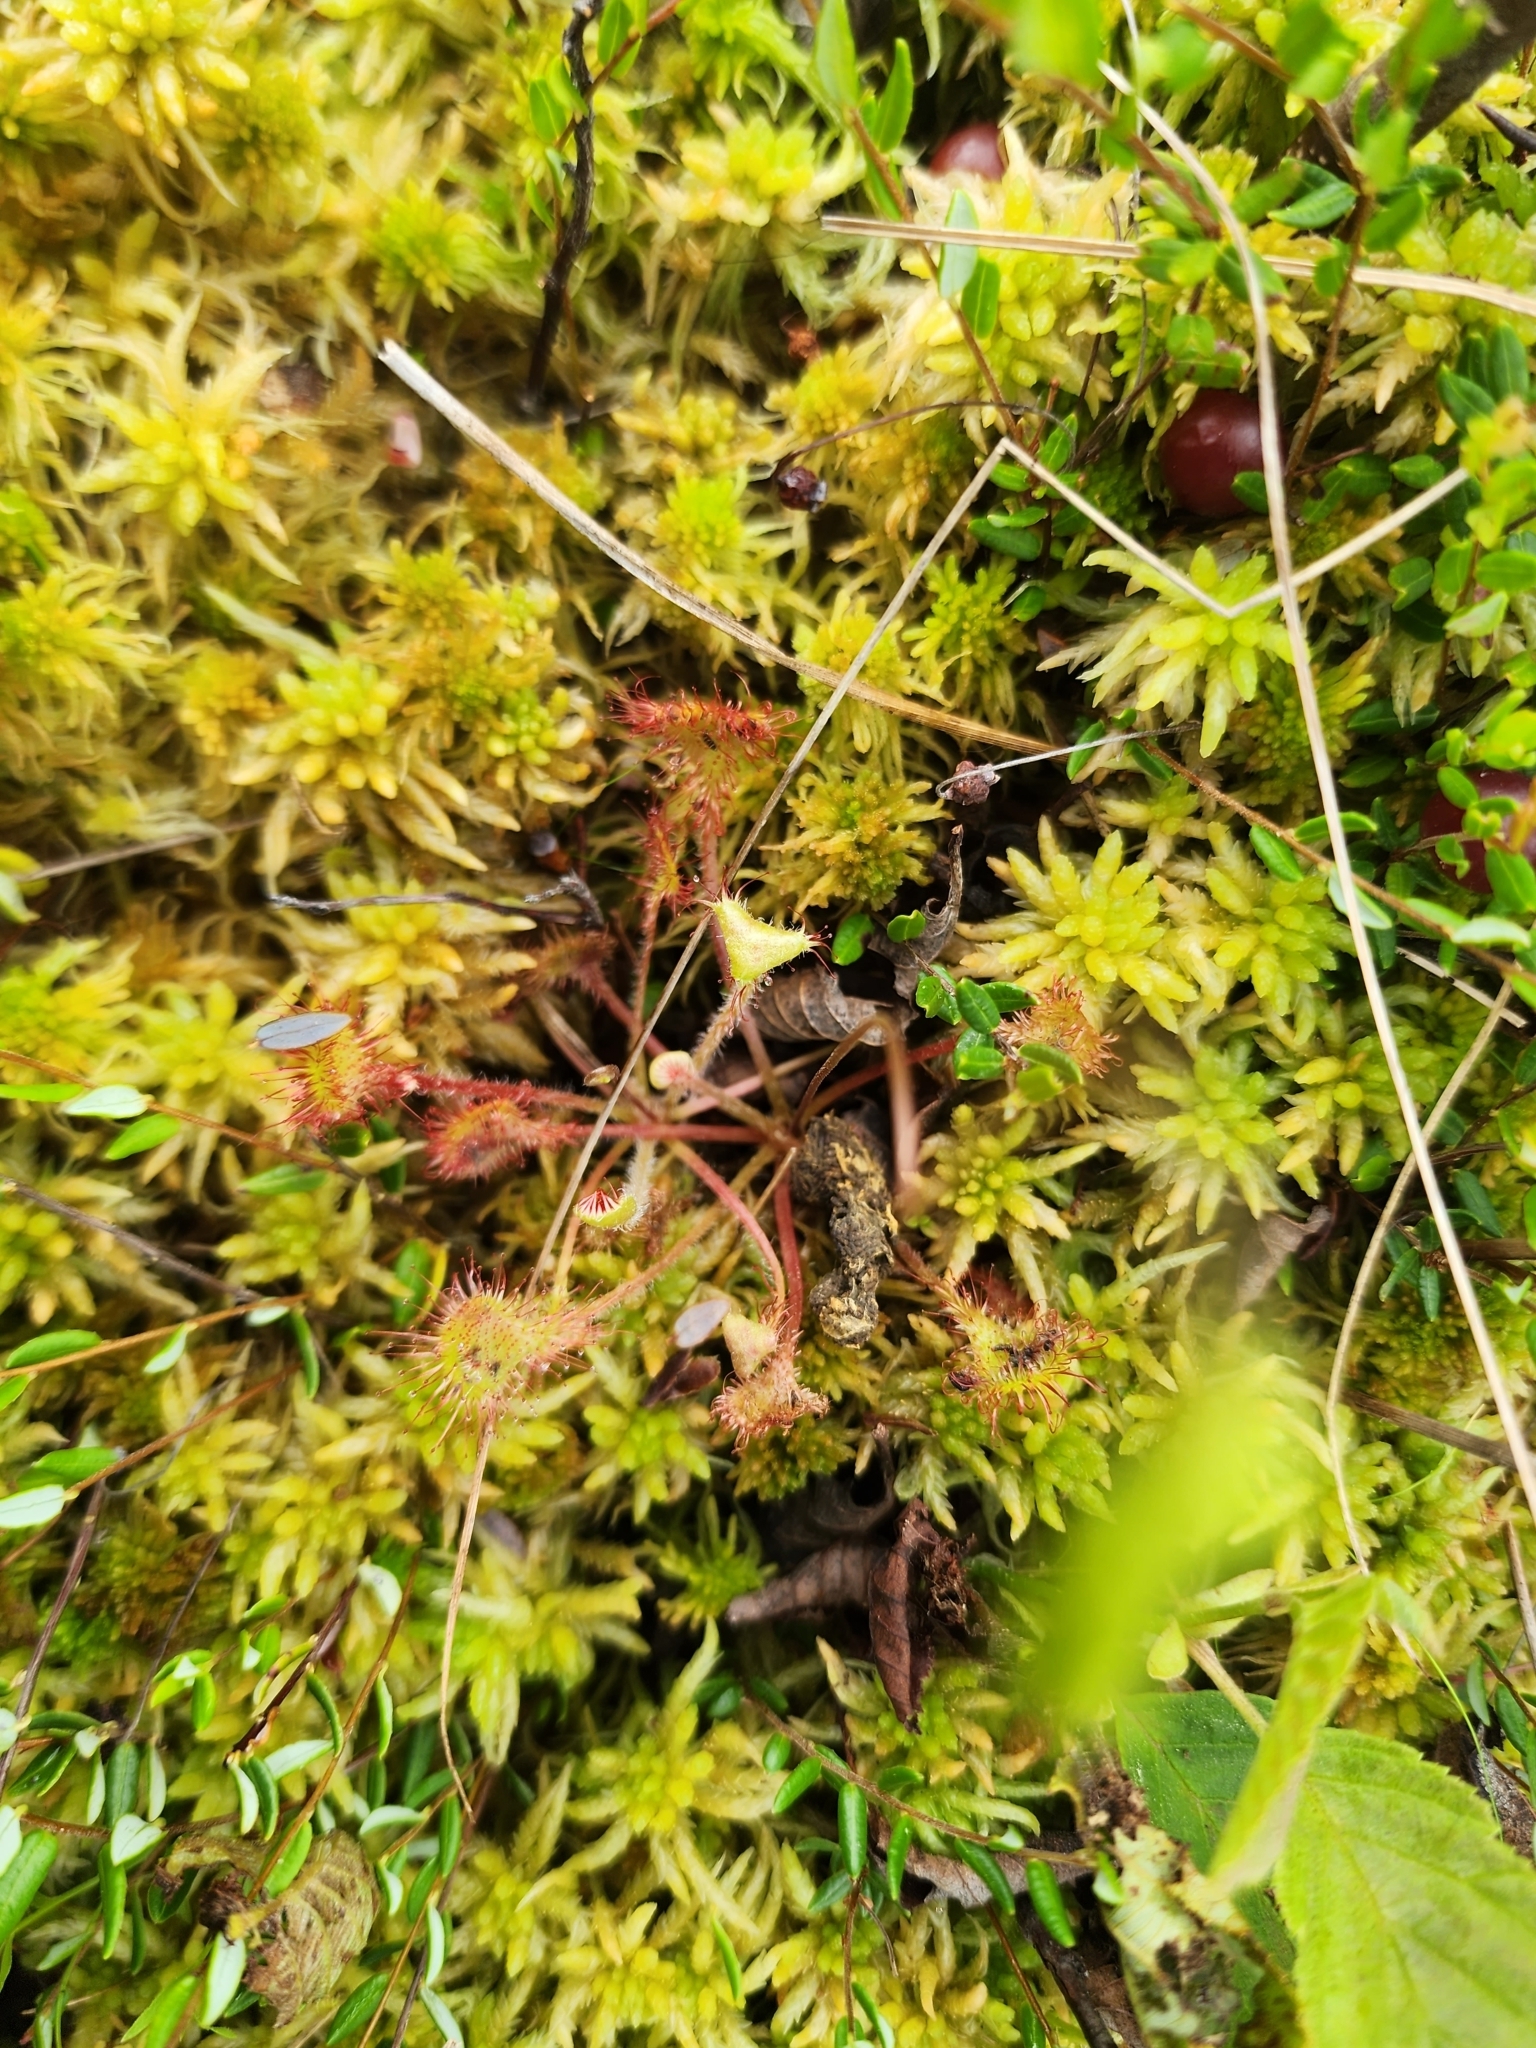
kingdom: Plantae
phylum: Tracheophyta
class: Magnoliopsida
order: Caryophyllales
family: Droseraceae
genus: Drosera
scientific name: Drosera rotundifolia
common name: Round-leaved sundew
